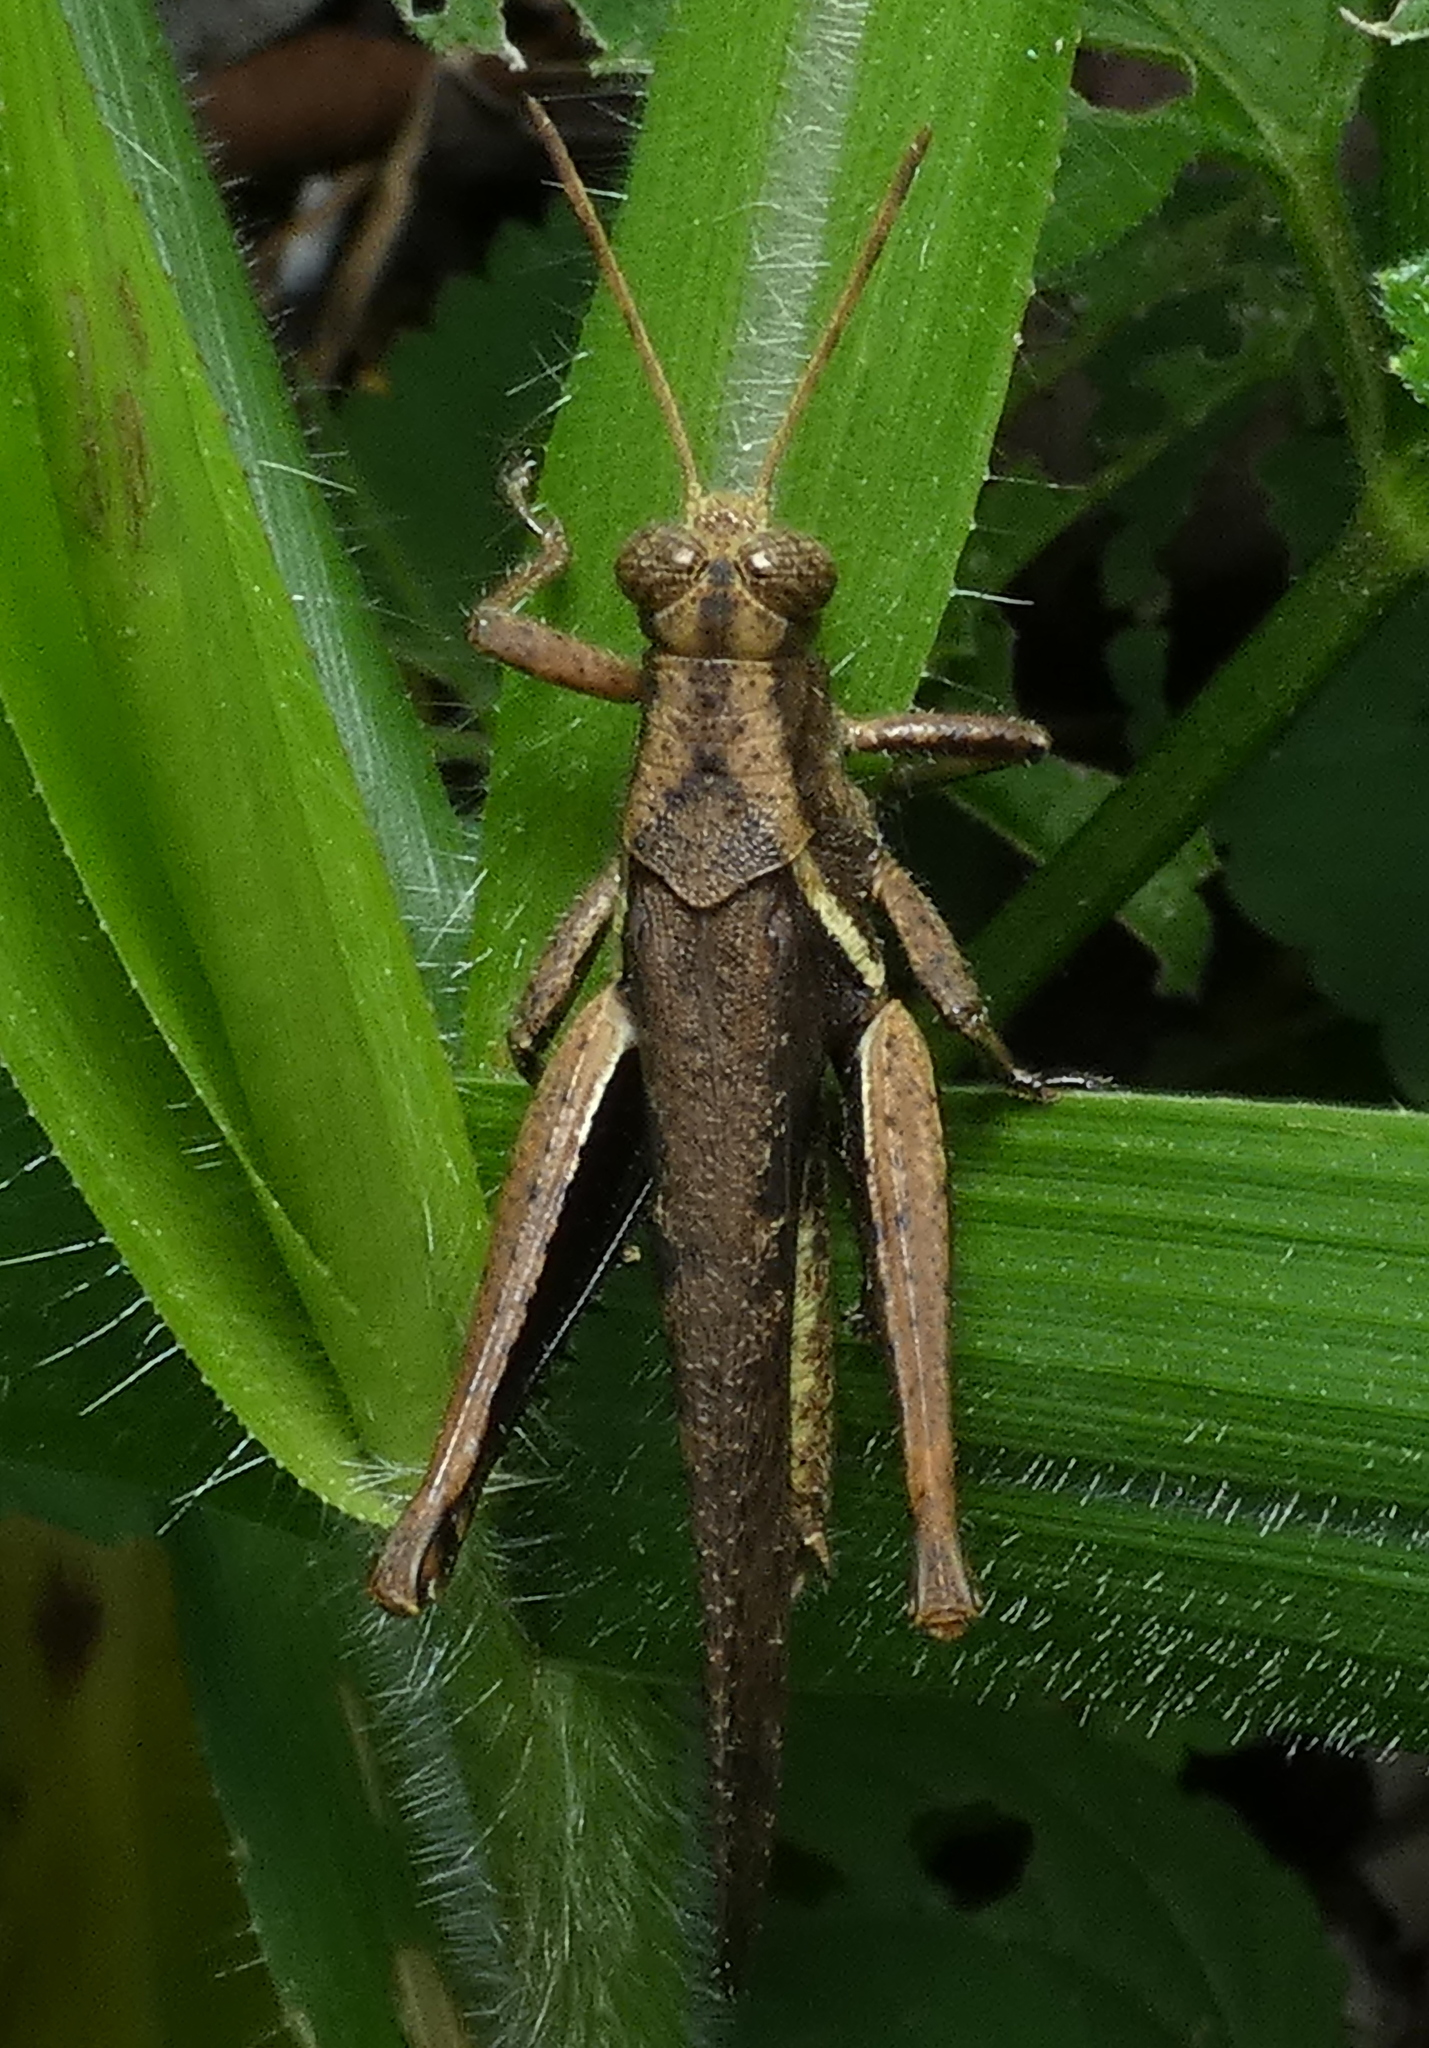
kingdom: Animalia
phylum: Arthropoda
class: Insecta
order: Orthoptera
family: Acrididae
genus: Abracris
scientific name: Abracris flavolineata
